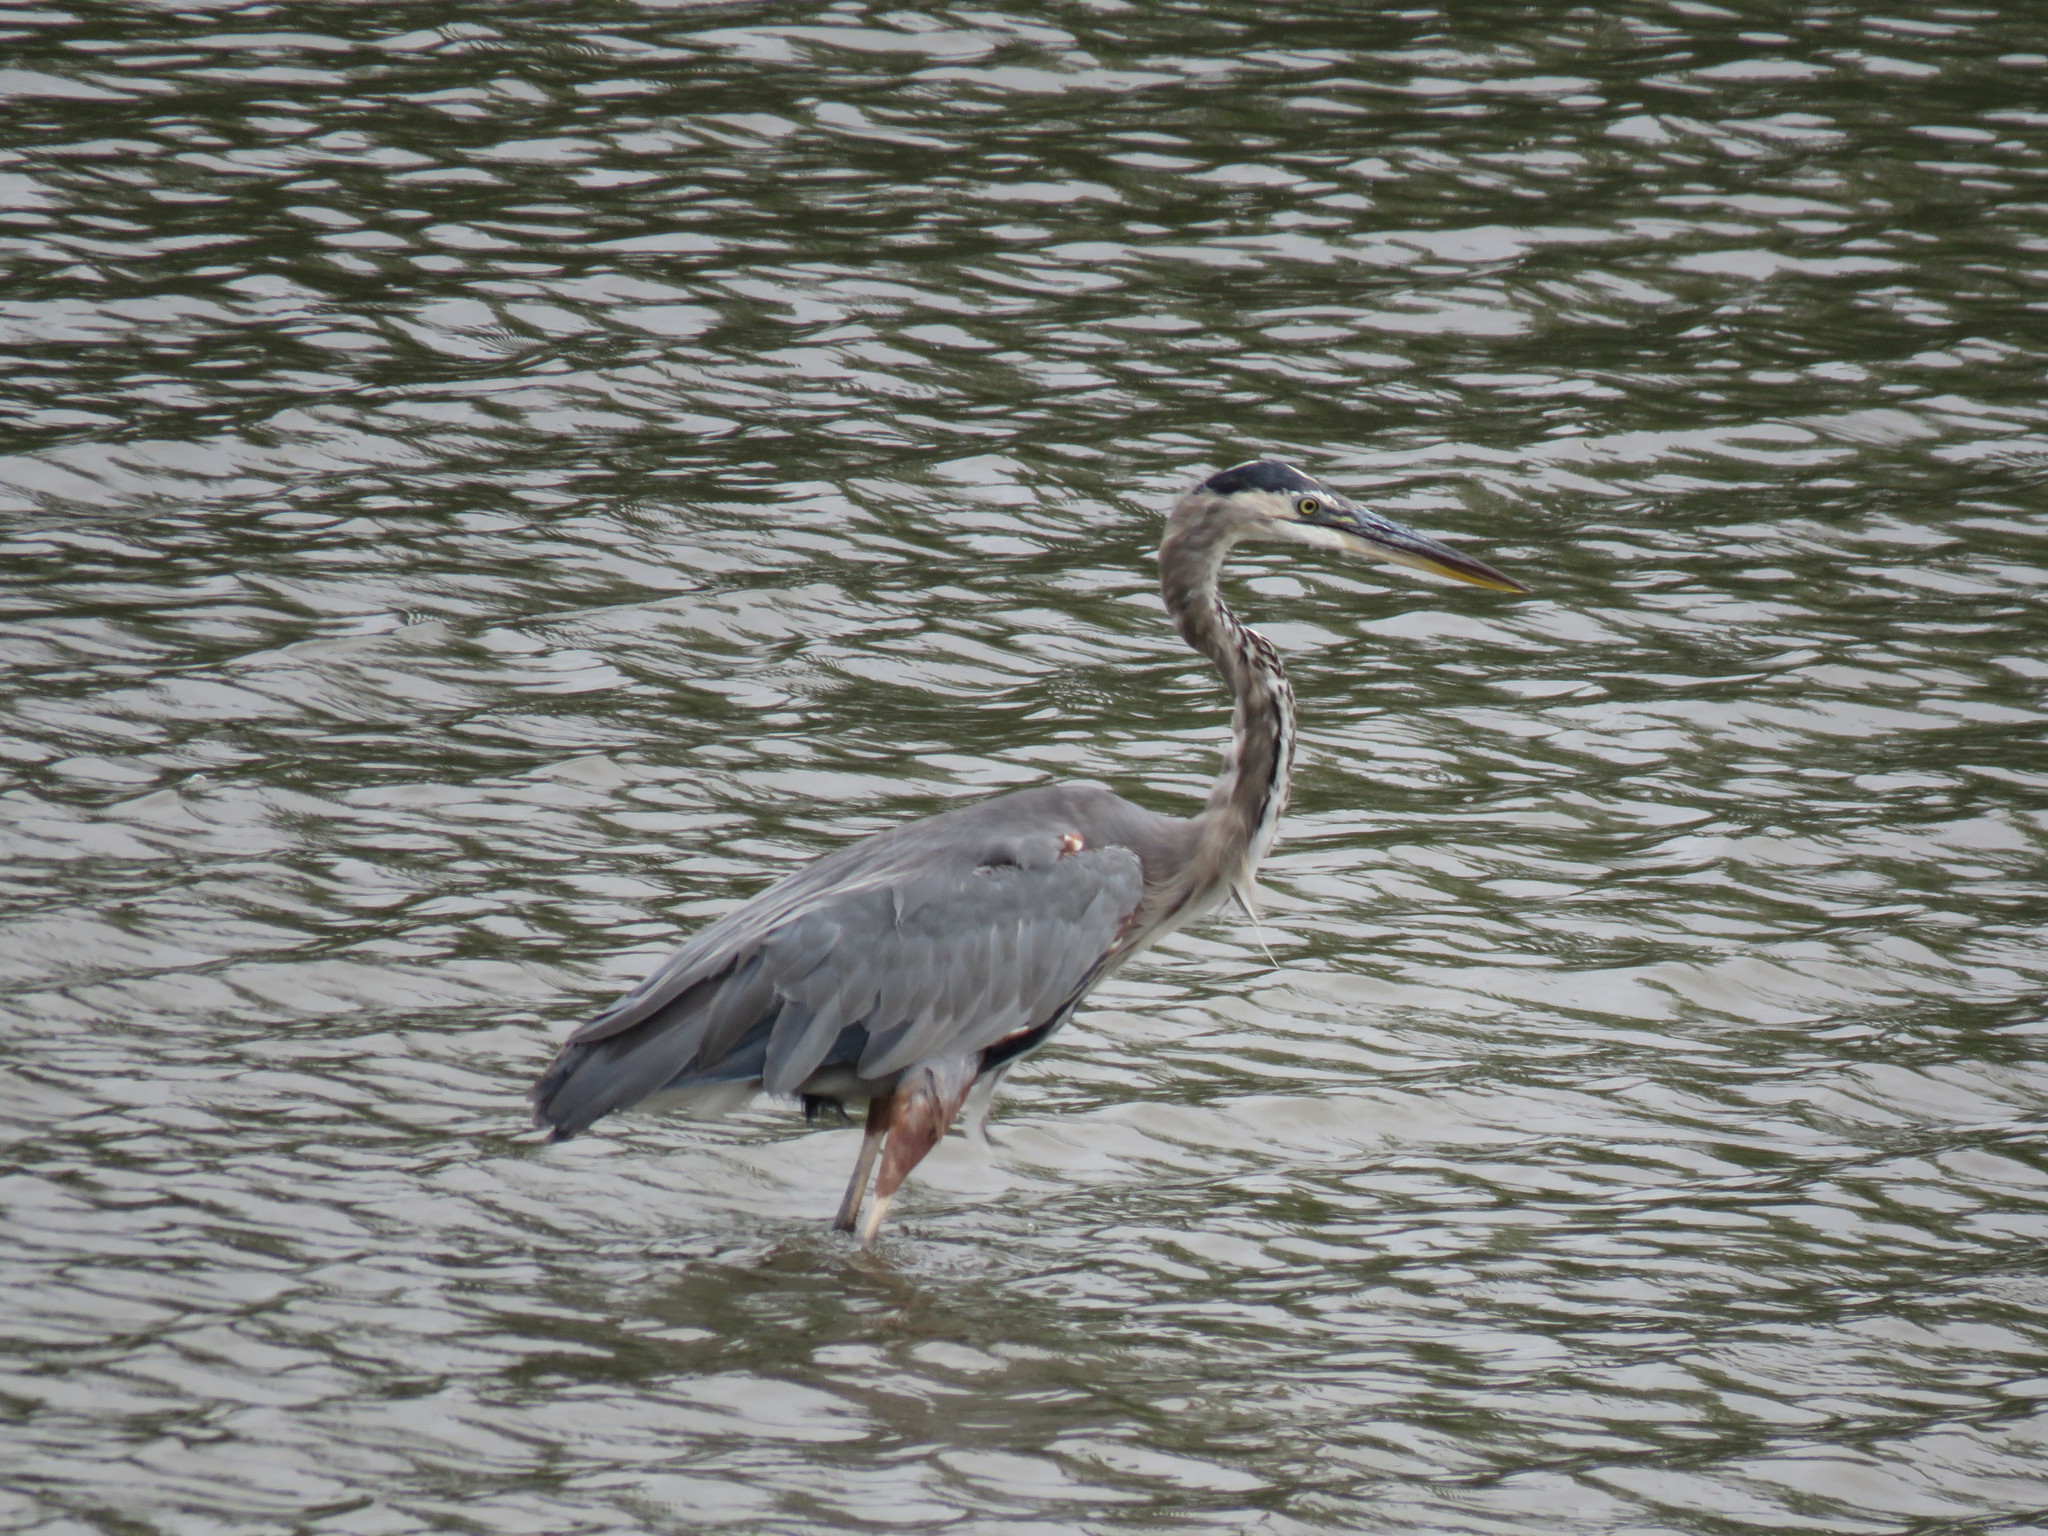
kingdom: Animalia
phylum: Chordata
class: Aves
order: Pelecaniformes
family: Ardeidae
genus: Ardea
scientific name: Ardea herodias
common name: Great blue heron
